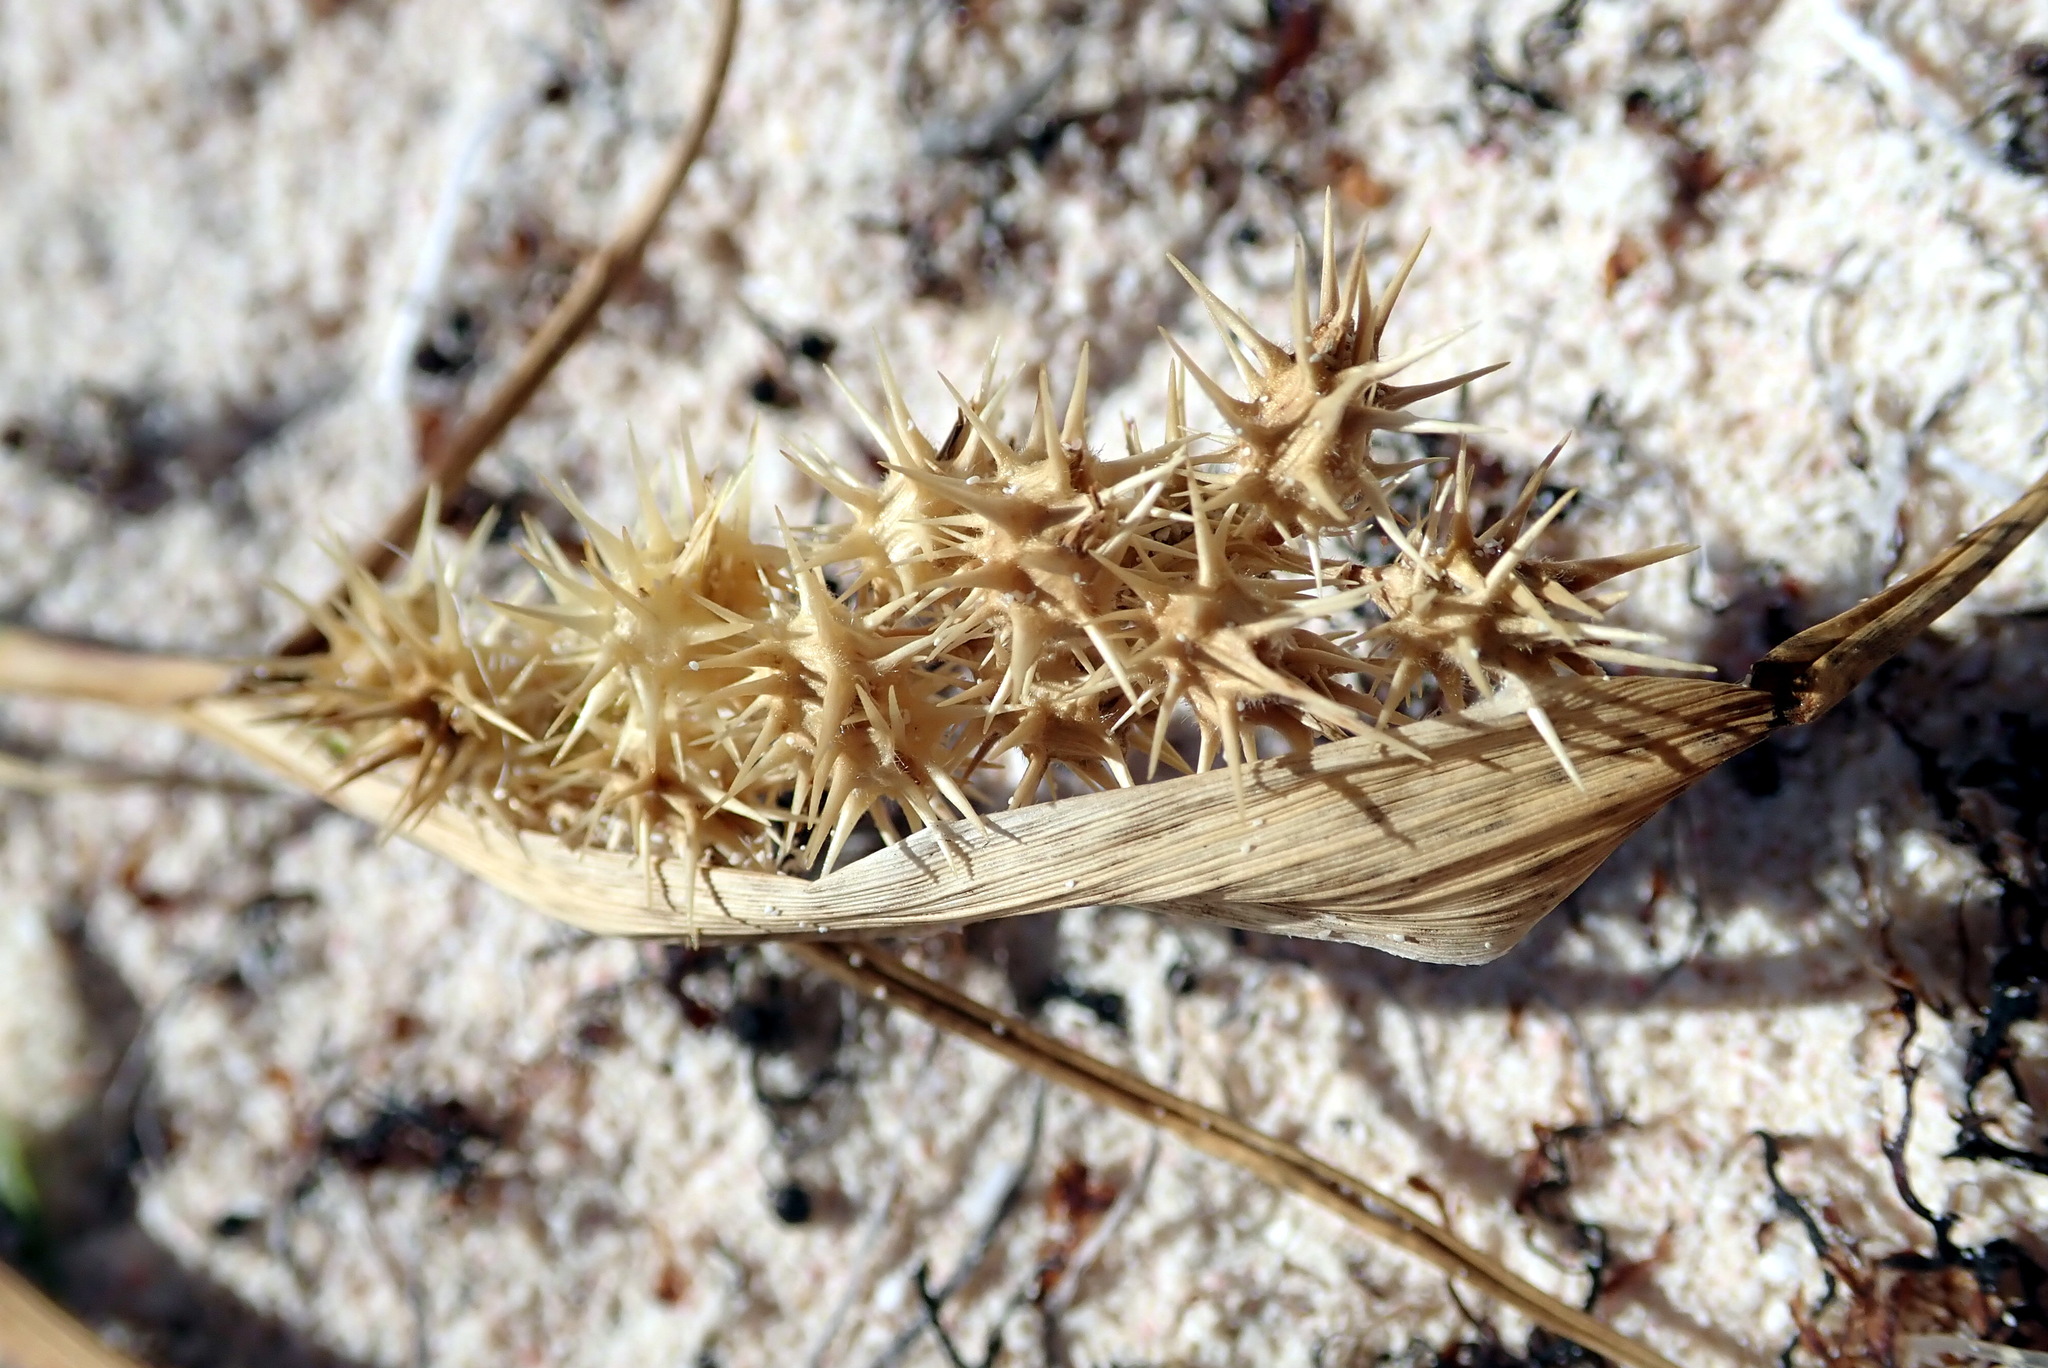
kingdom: Plantae
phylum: Tracheophyta
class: Liliopsida
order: Poales
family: Poaceae
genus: Cenchrus
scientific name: Cenchrus spinifex
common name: Coast sandbur
